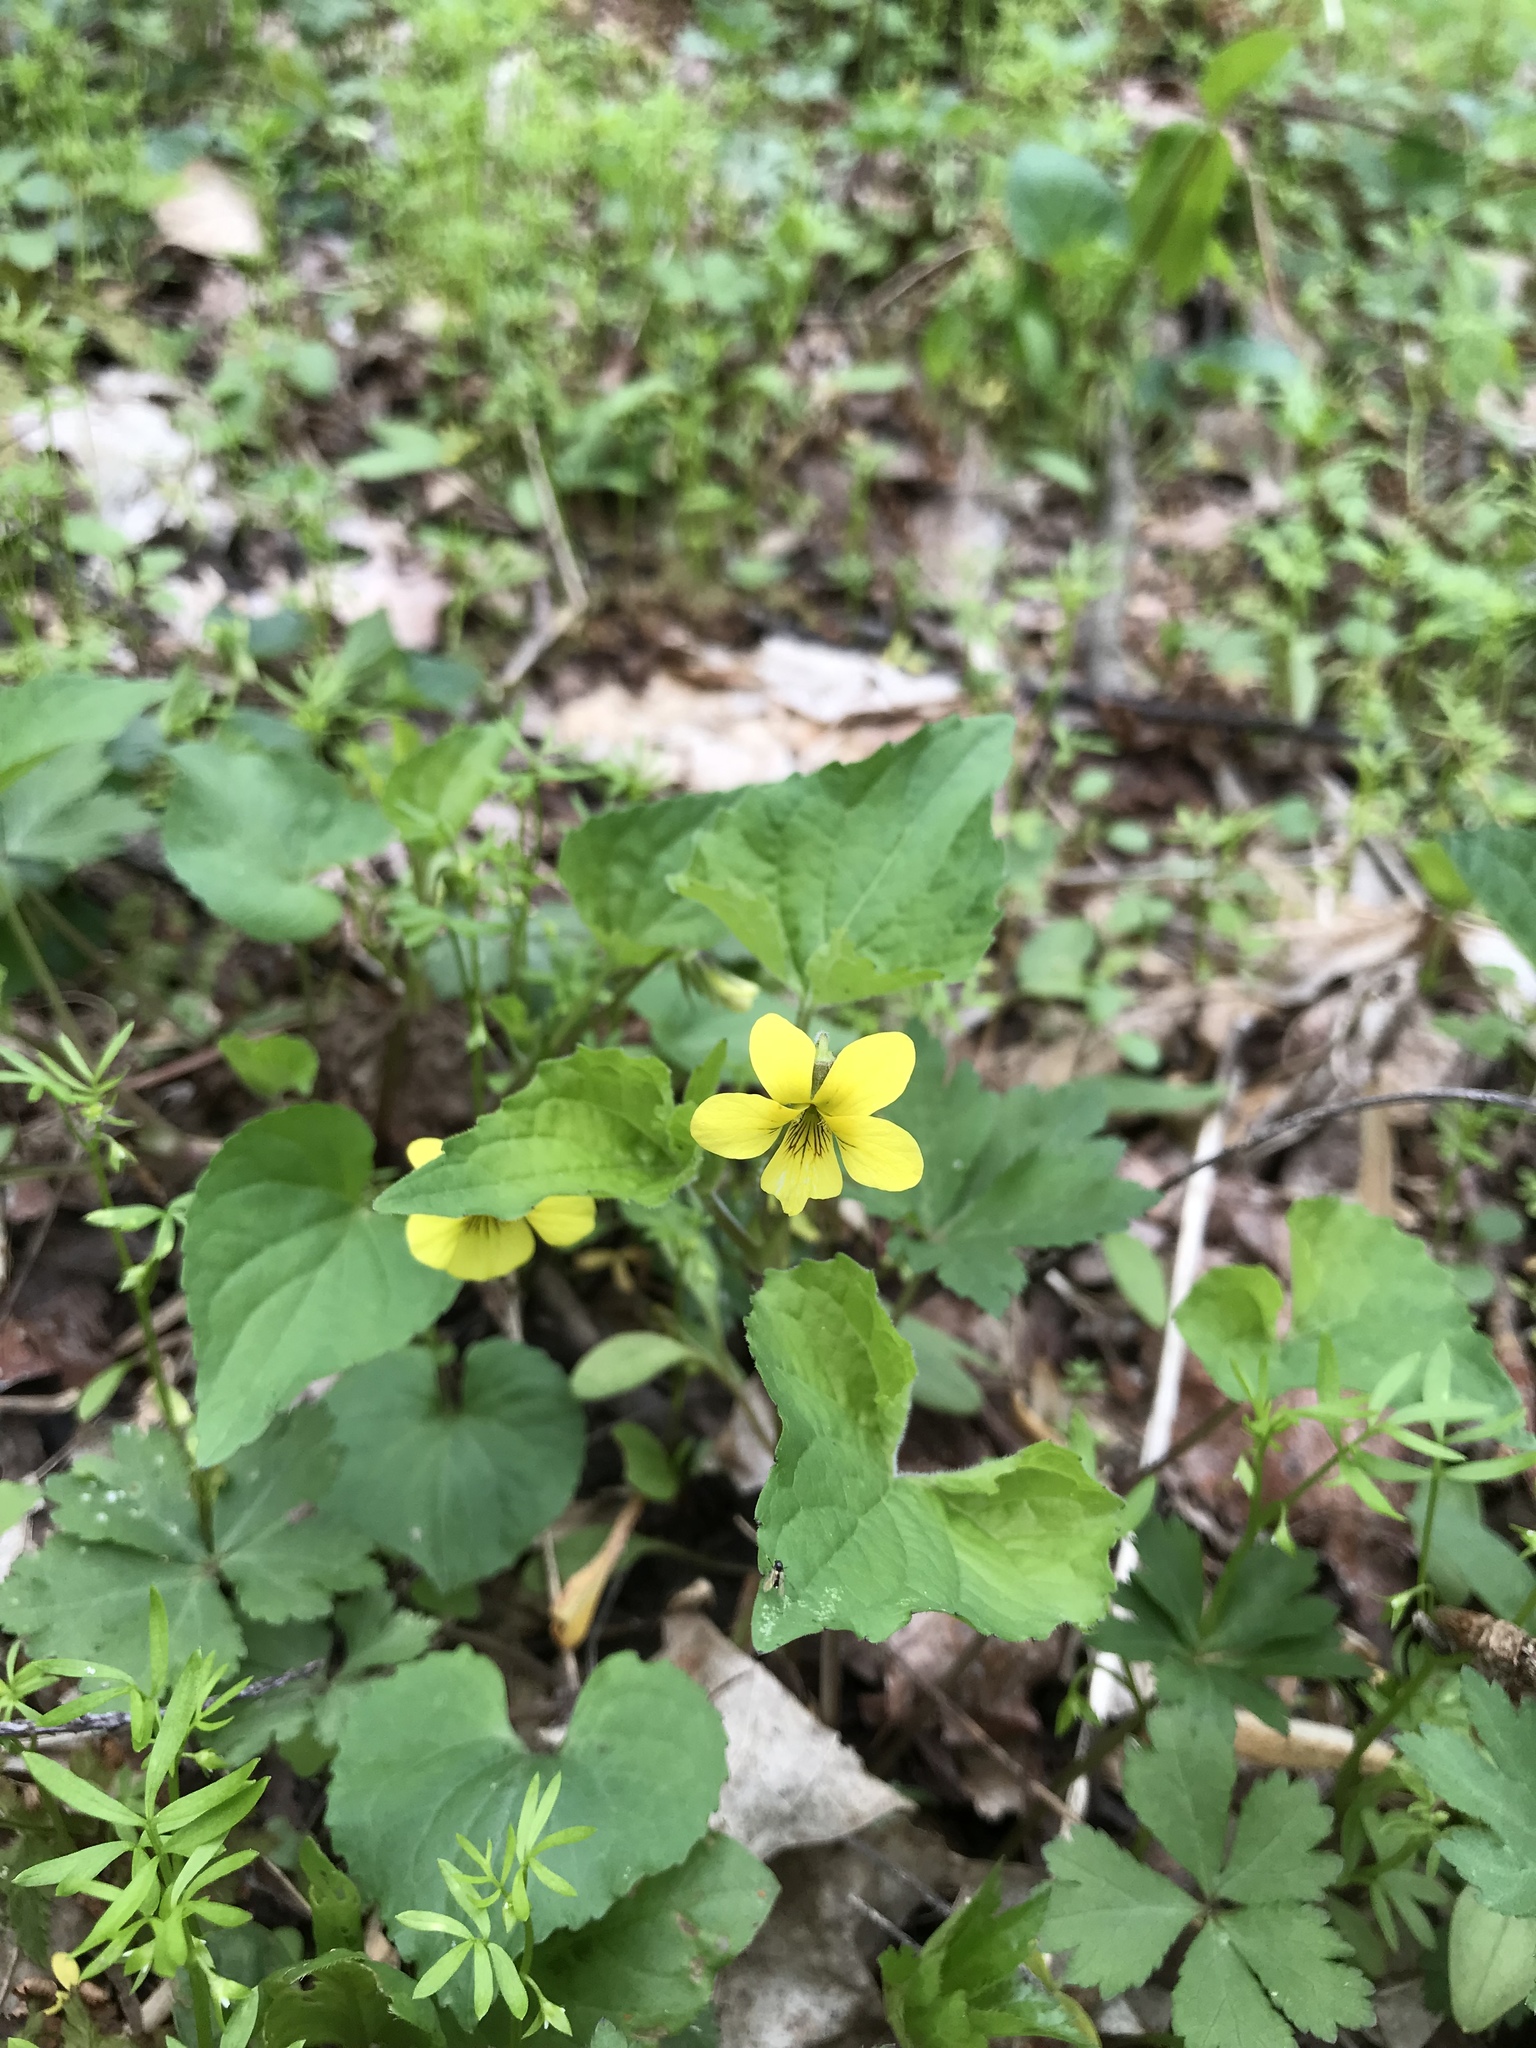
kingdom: Plantae
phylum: Tracheophyta
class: Magnoliopsida
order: Malpighiales
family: Violaceae
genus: Viola
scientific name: Viola eriocarpa
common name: Smooth yellow violet
